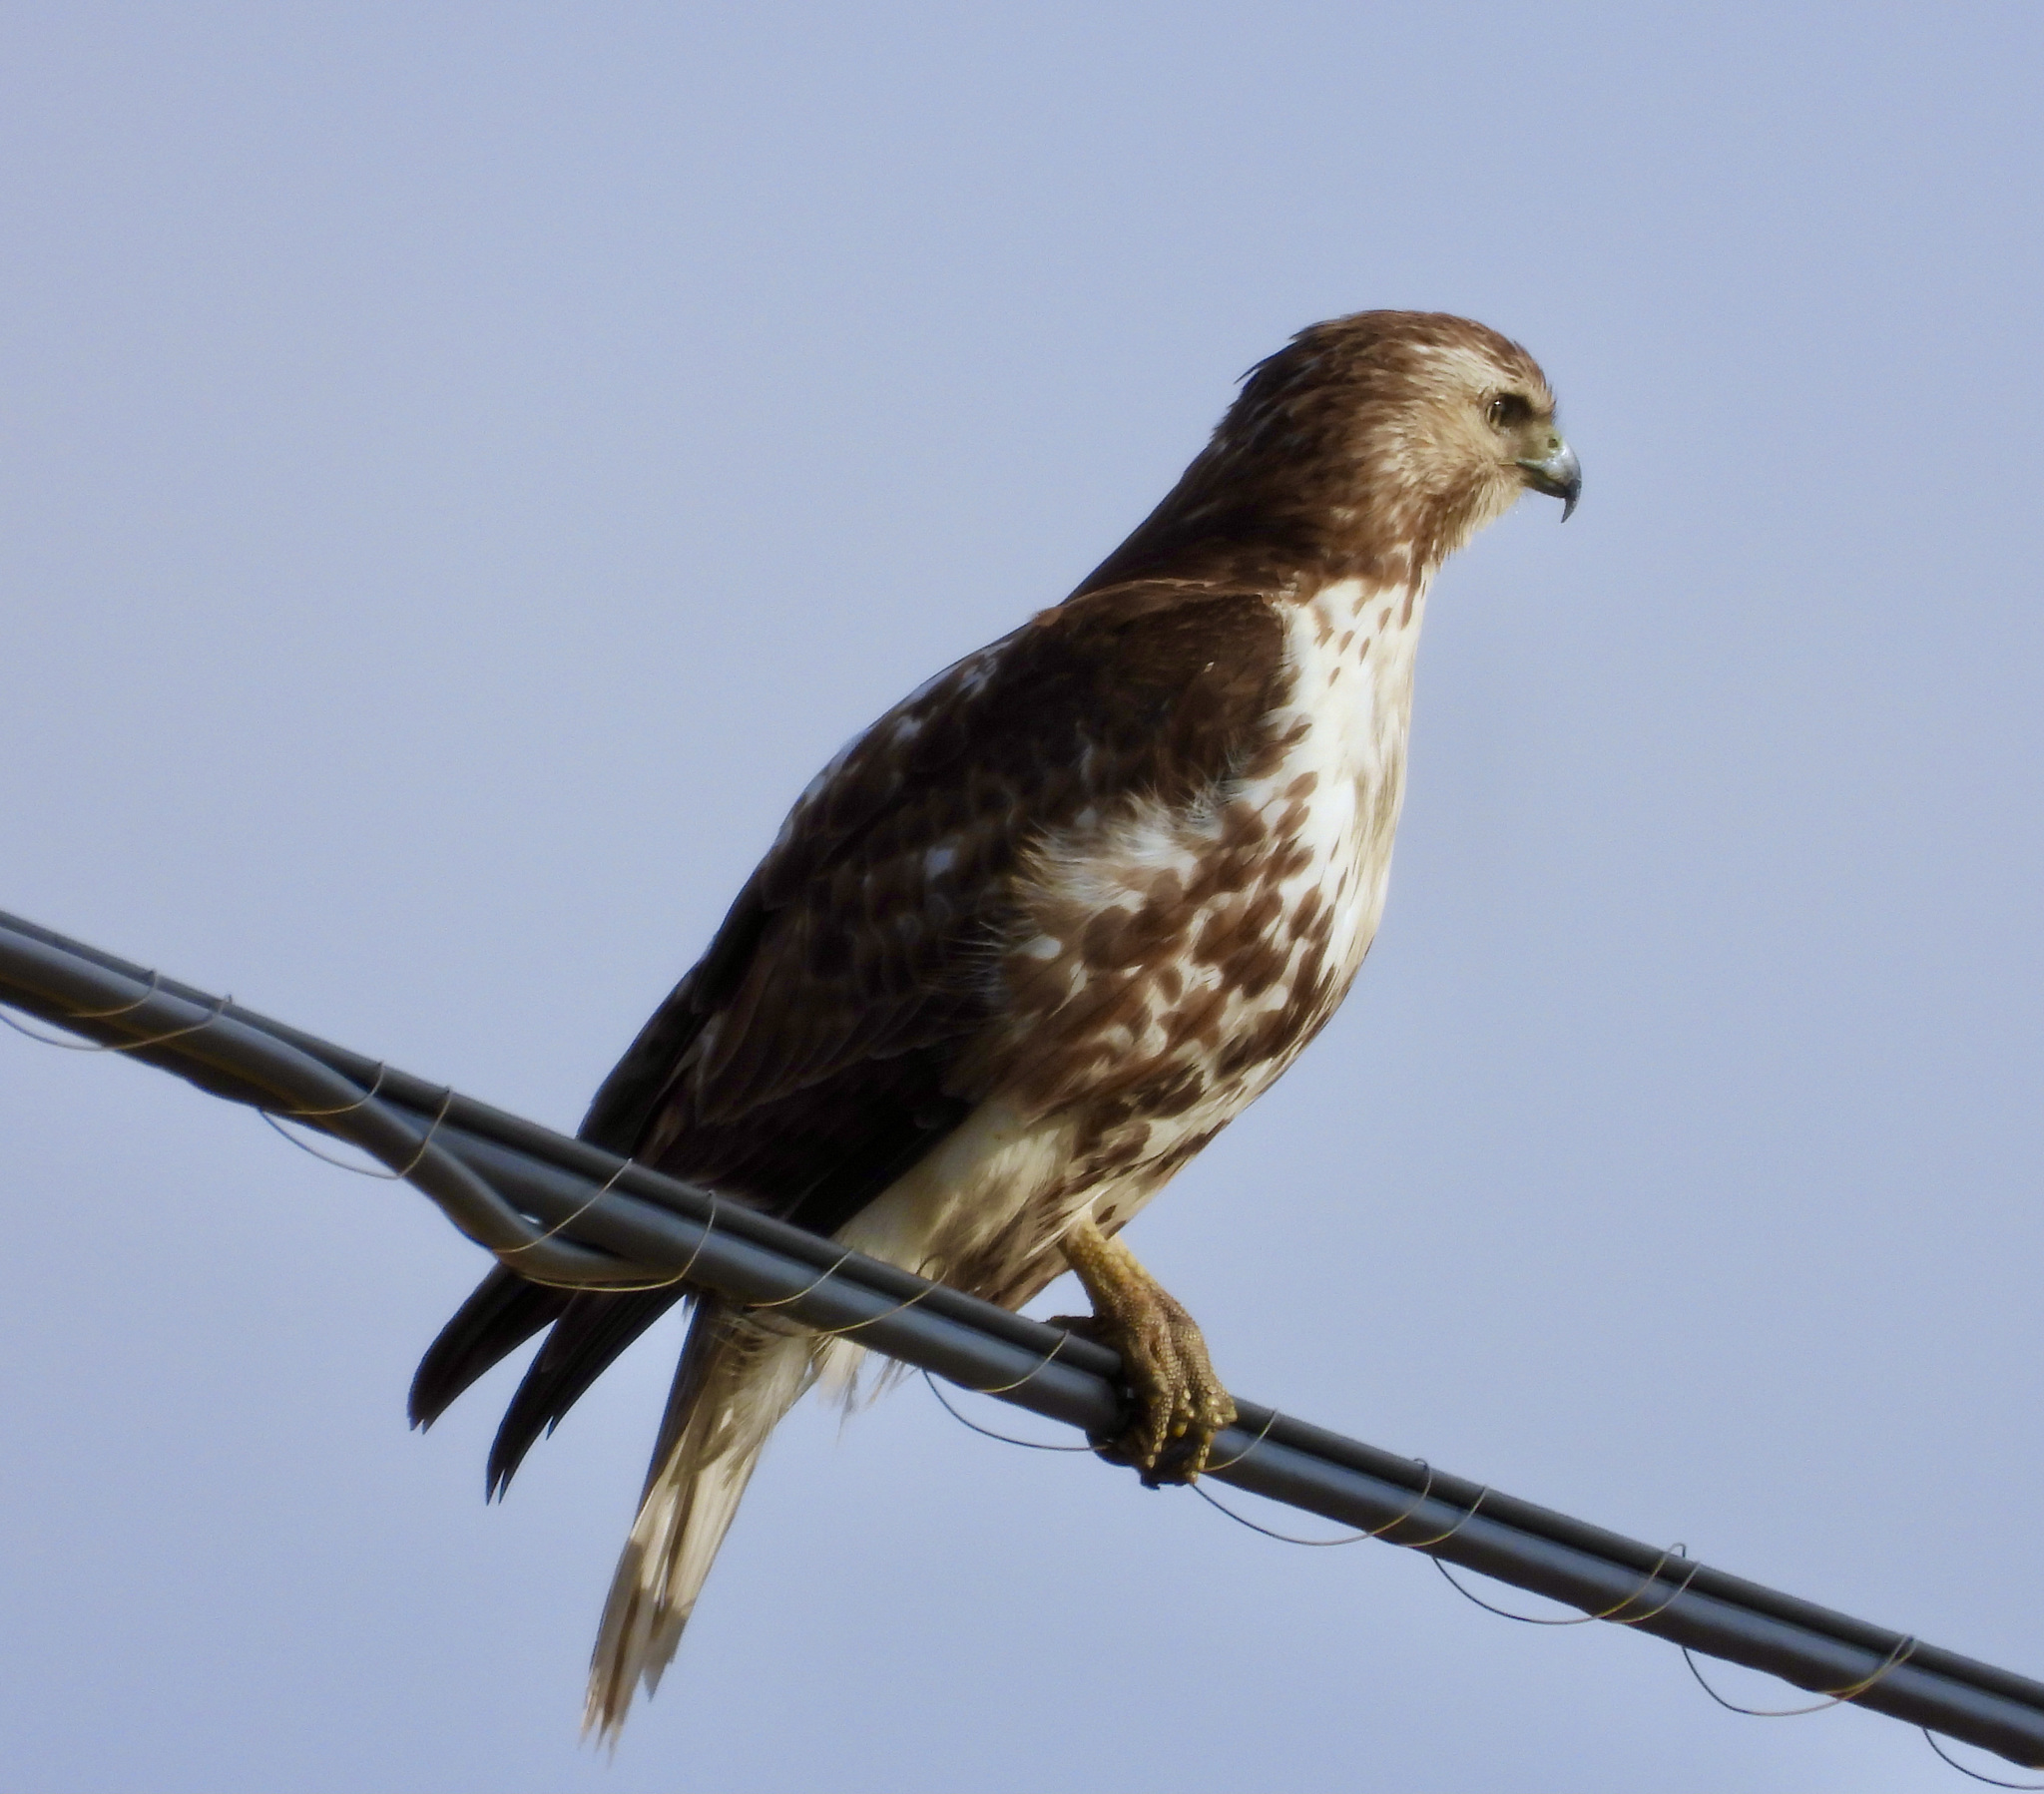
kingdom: Animalia
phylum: Chordata
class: Aves
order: Accipitriformes
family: Accipitridae
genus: Buteo
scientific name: Buteo jamaicensis
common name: Red-tailed hawk
